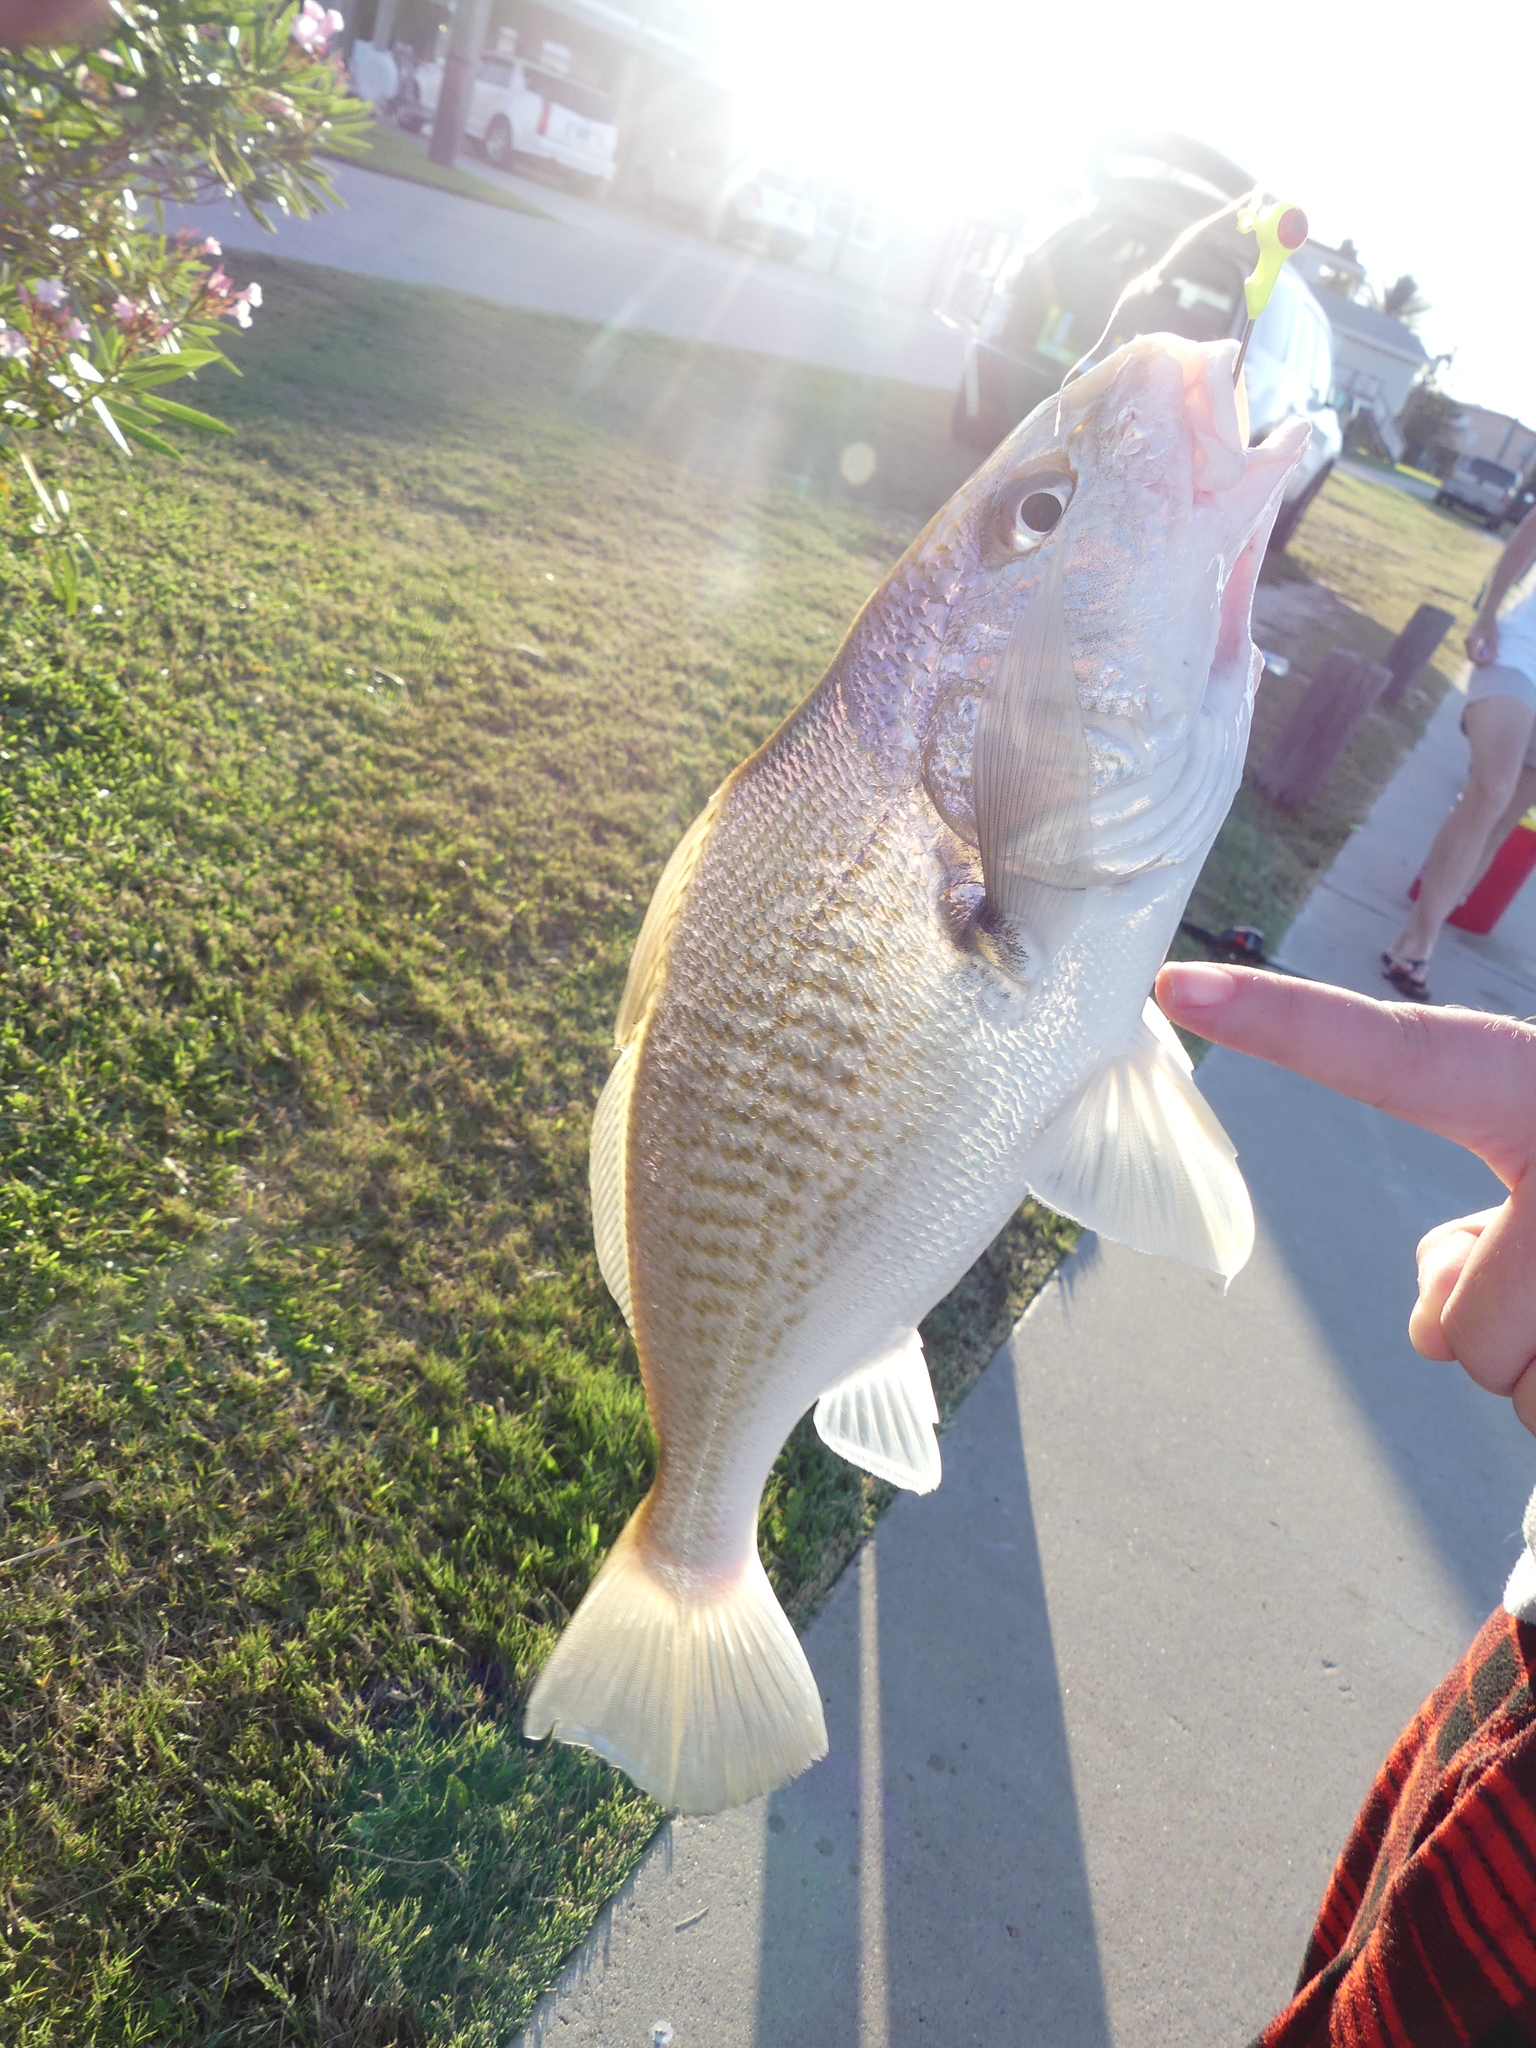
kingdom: Animalia
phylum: Chordata
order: Perciformes
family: Sciaenidae
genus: Micropogonias
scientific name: Micropogonias undulatus
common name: Atlantic croaker
